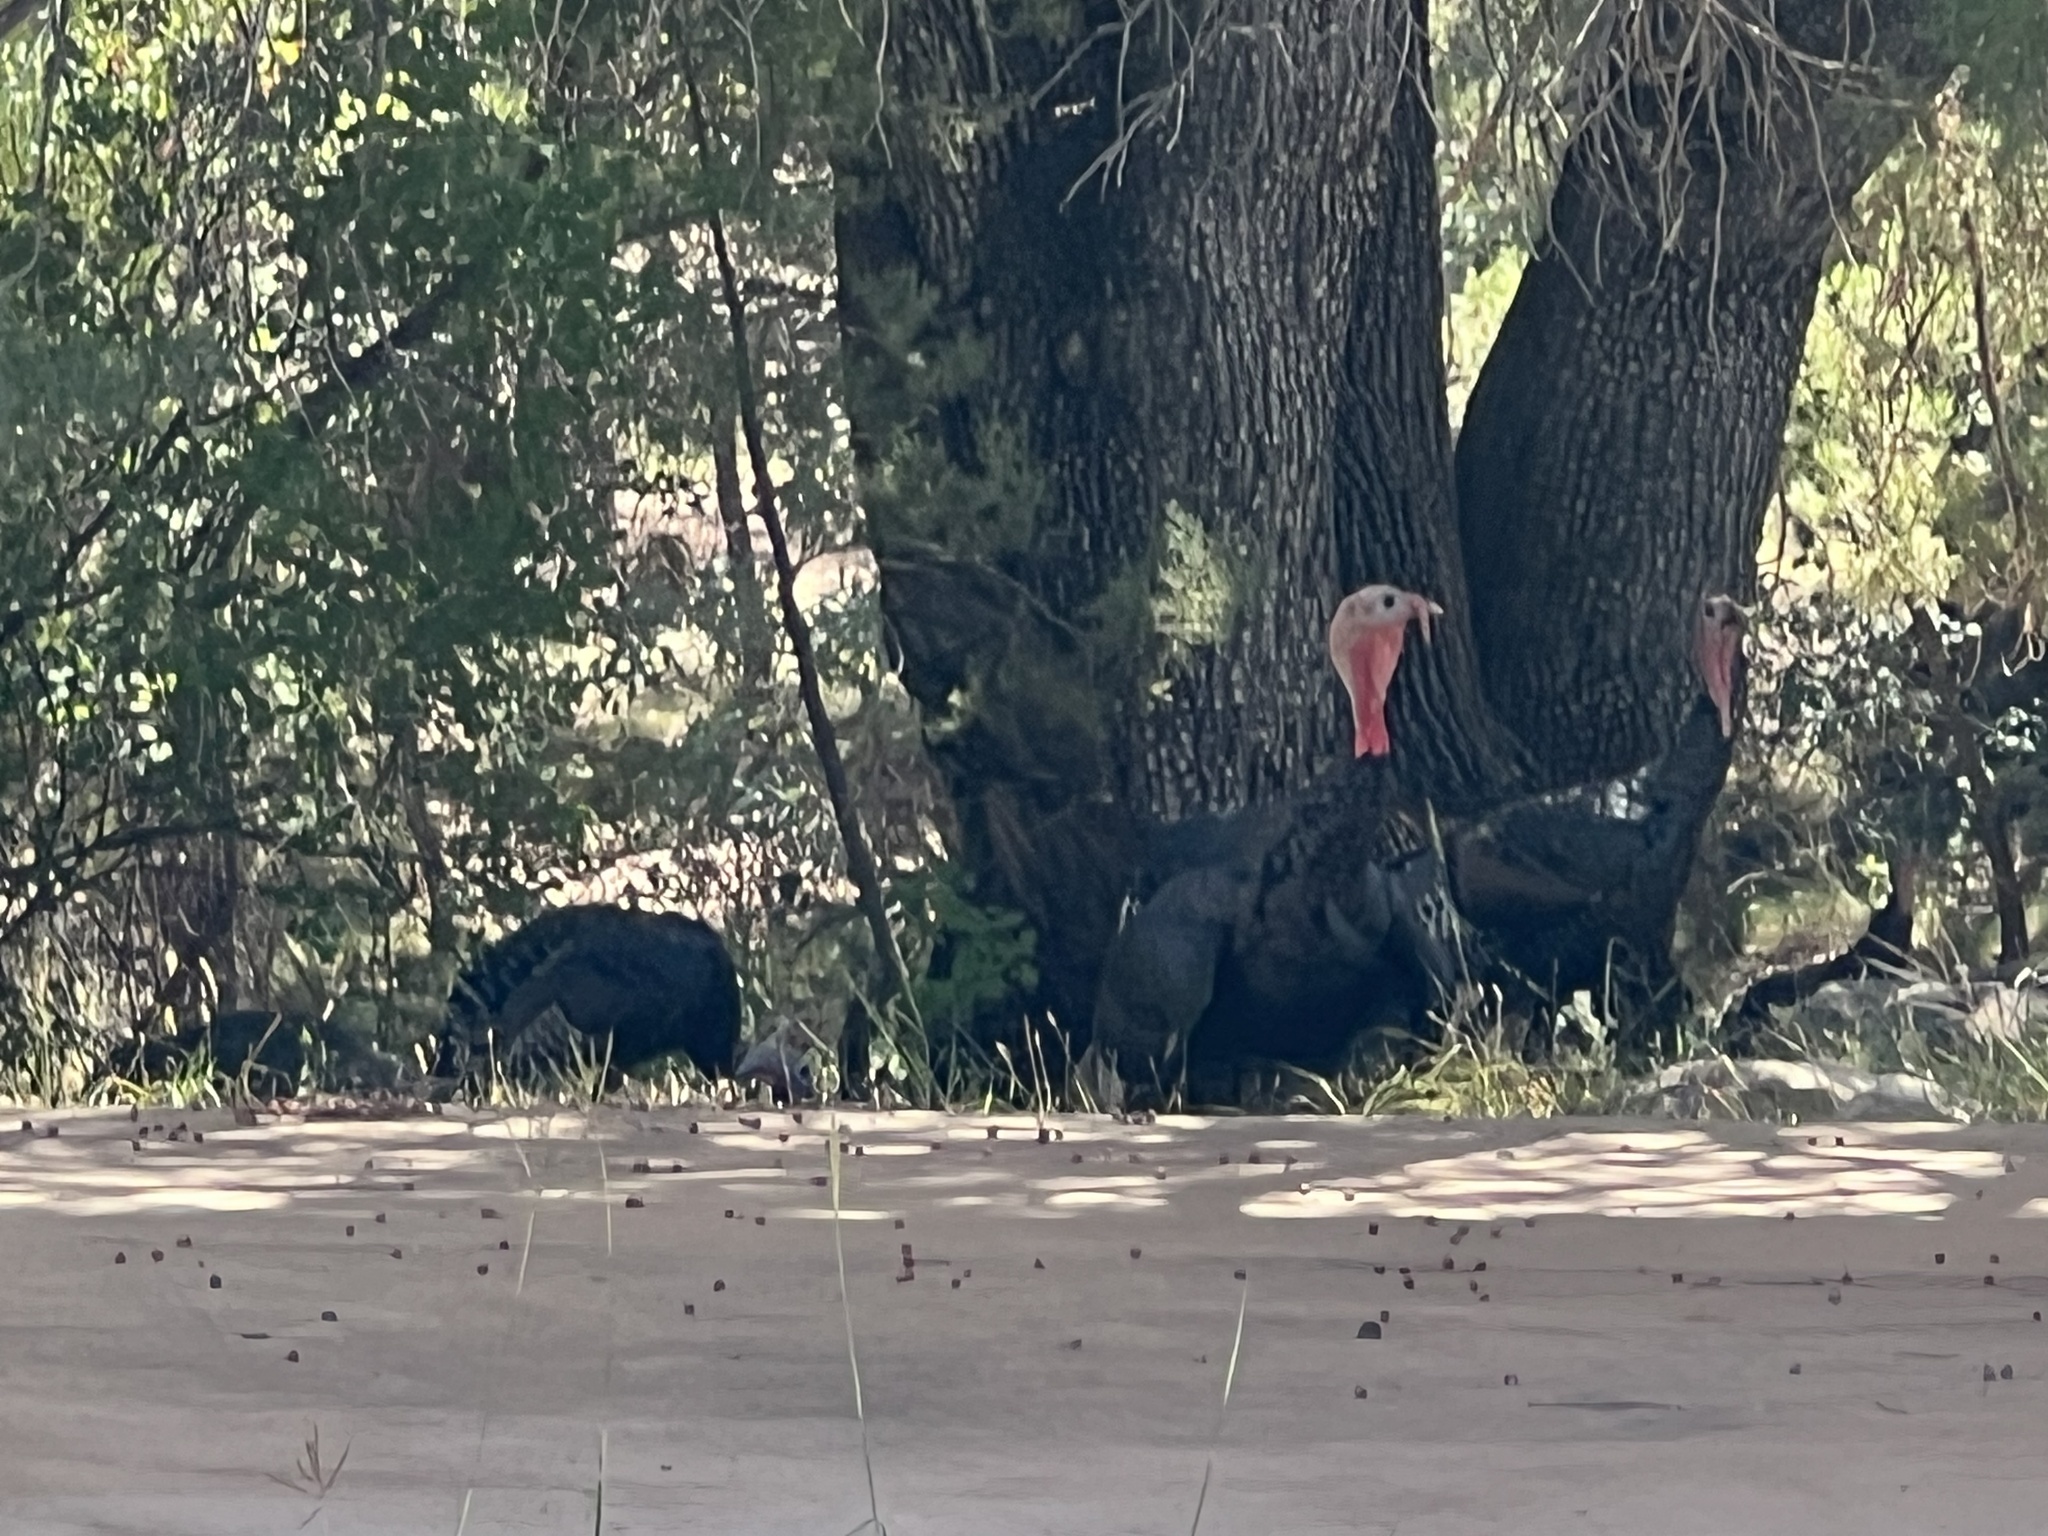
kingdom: Animalia
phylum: Chordata
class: Aves
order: Galliformes
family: Phasianidae
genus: Meleagris
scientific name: Meleagris gallopavo
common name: Wild turkey
